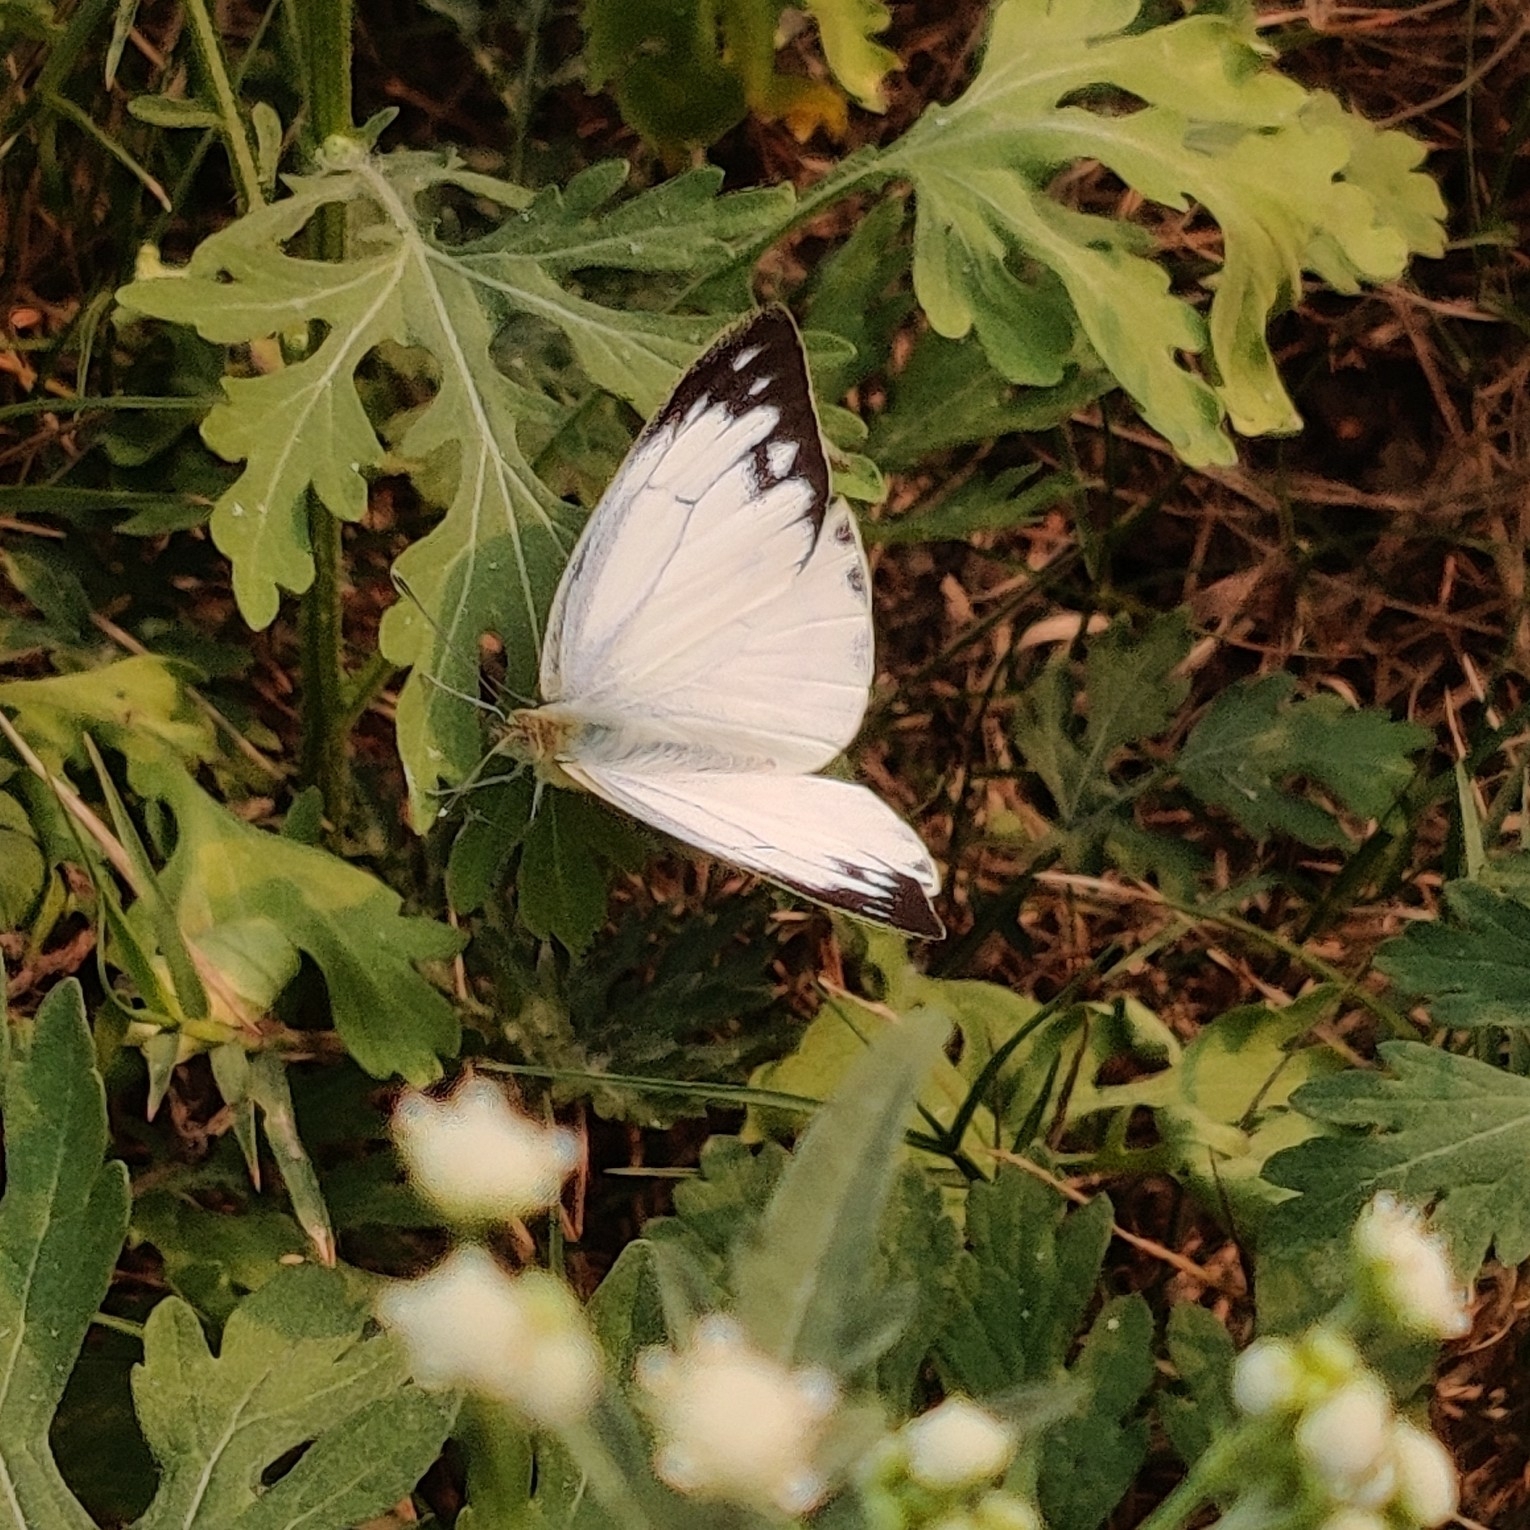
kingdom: Animalia
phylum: Arthropoda
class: Insecta
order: Lepidoptera
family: Pieridae
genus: Cepora
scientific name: Cepora nerissa
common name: Common gull
